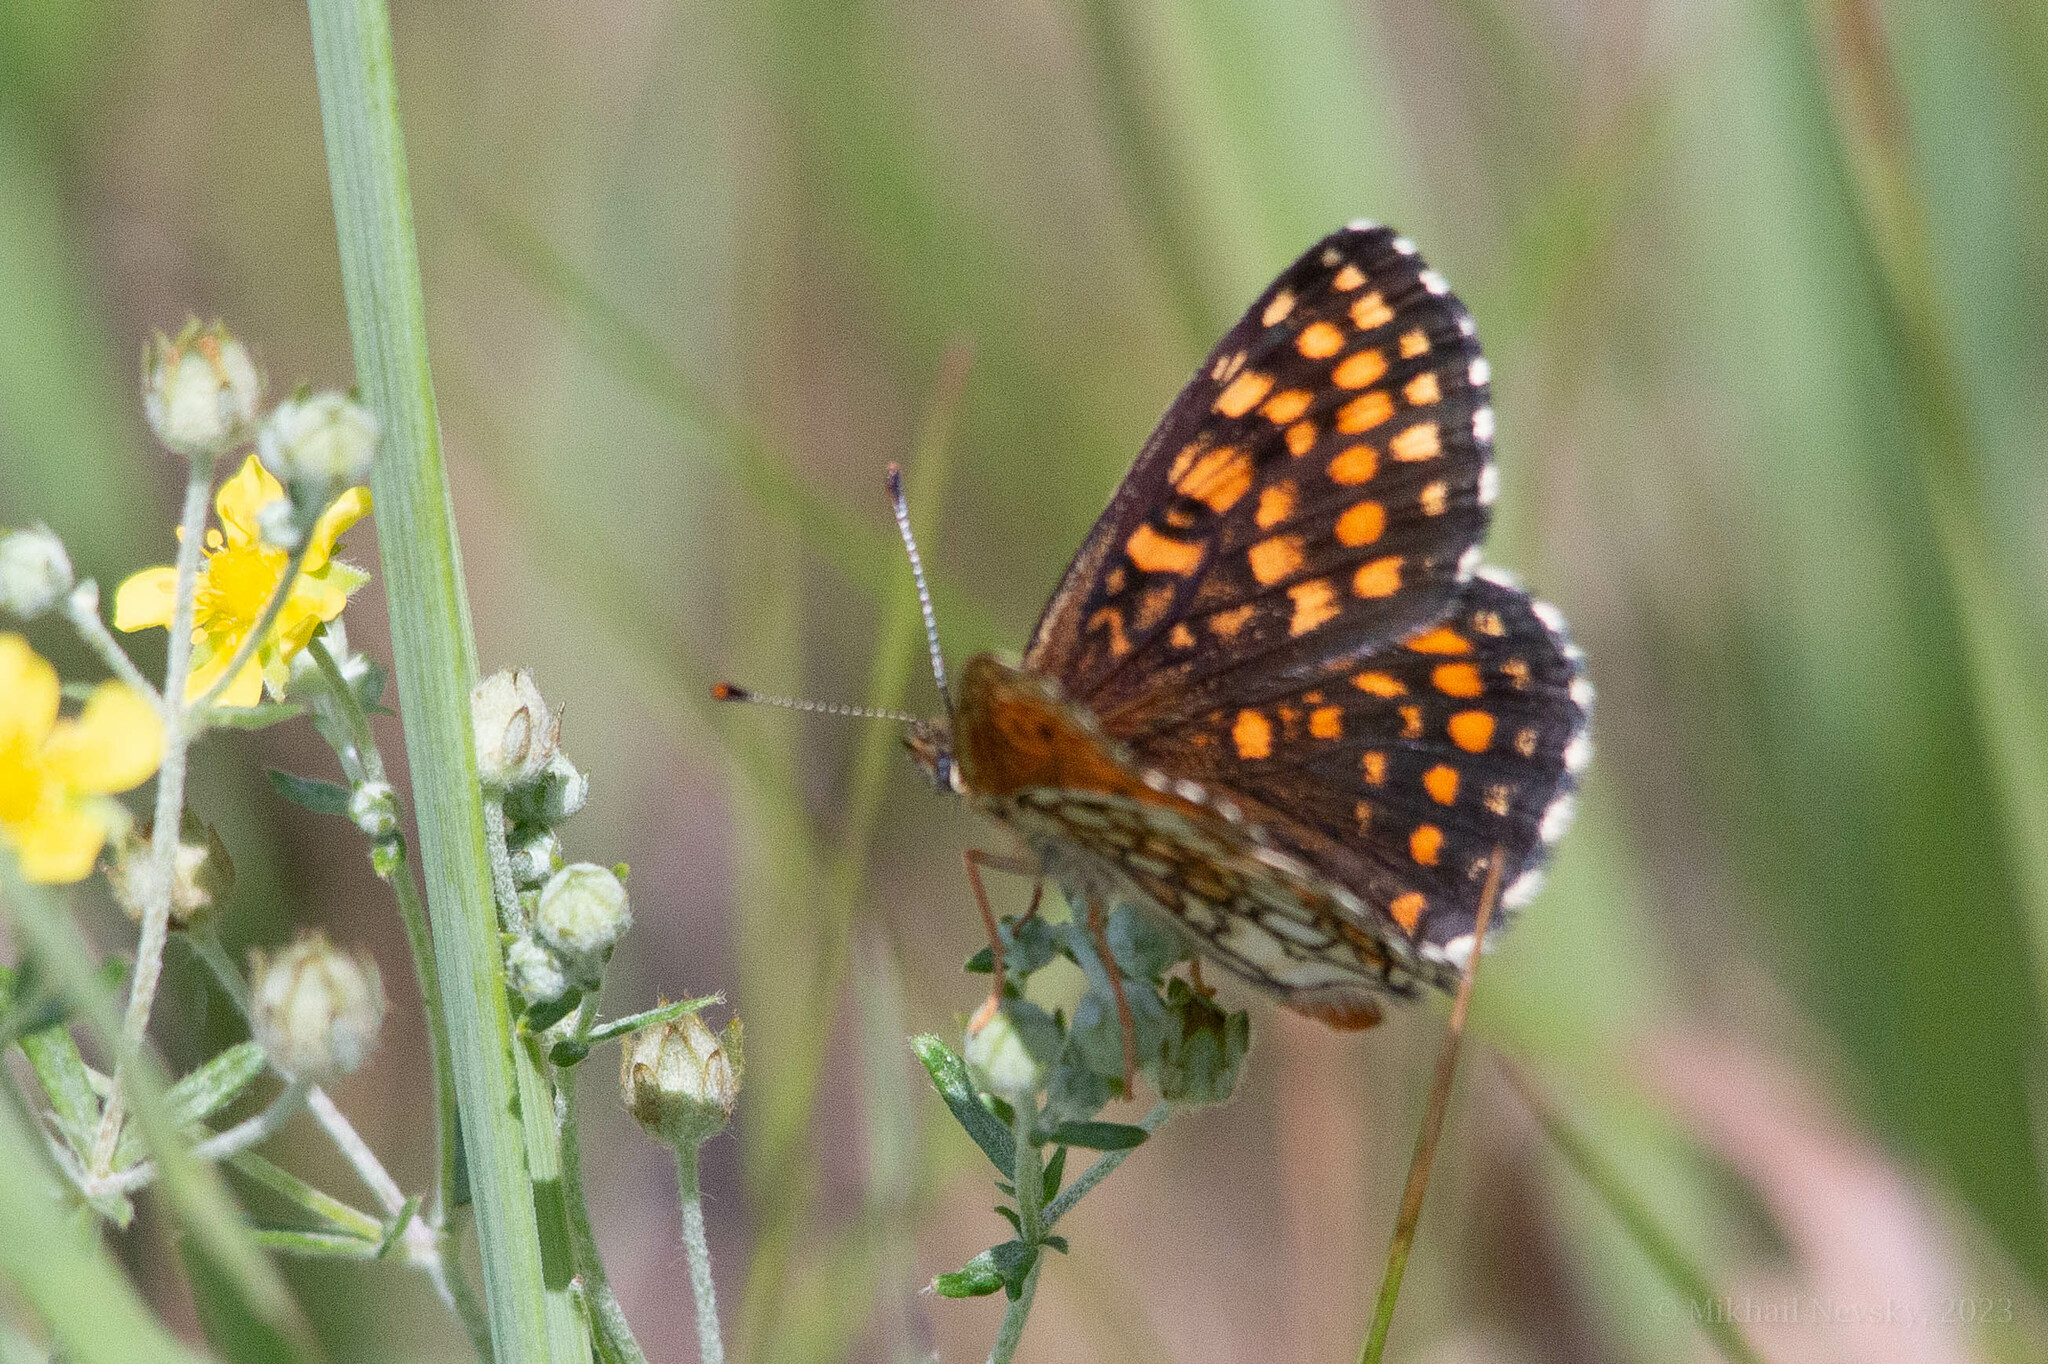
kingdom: Animalia
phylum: Arthropoda
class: Insecta
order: Lepidoptera
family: Nymphalidae
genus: Melitaea
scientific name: Melitaea athalia
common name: Heath fritillary
